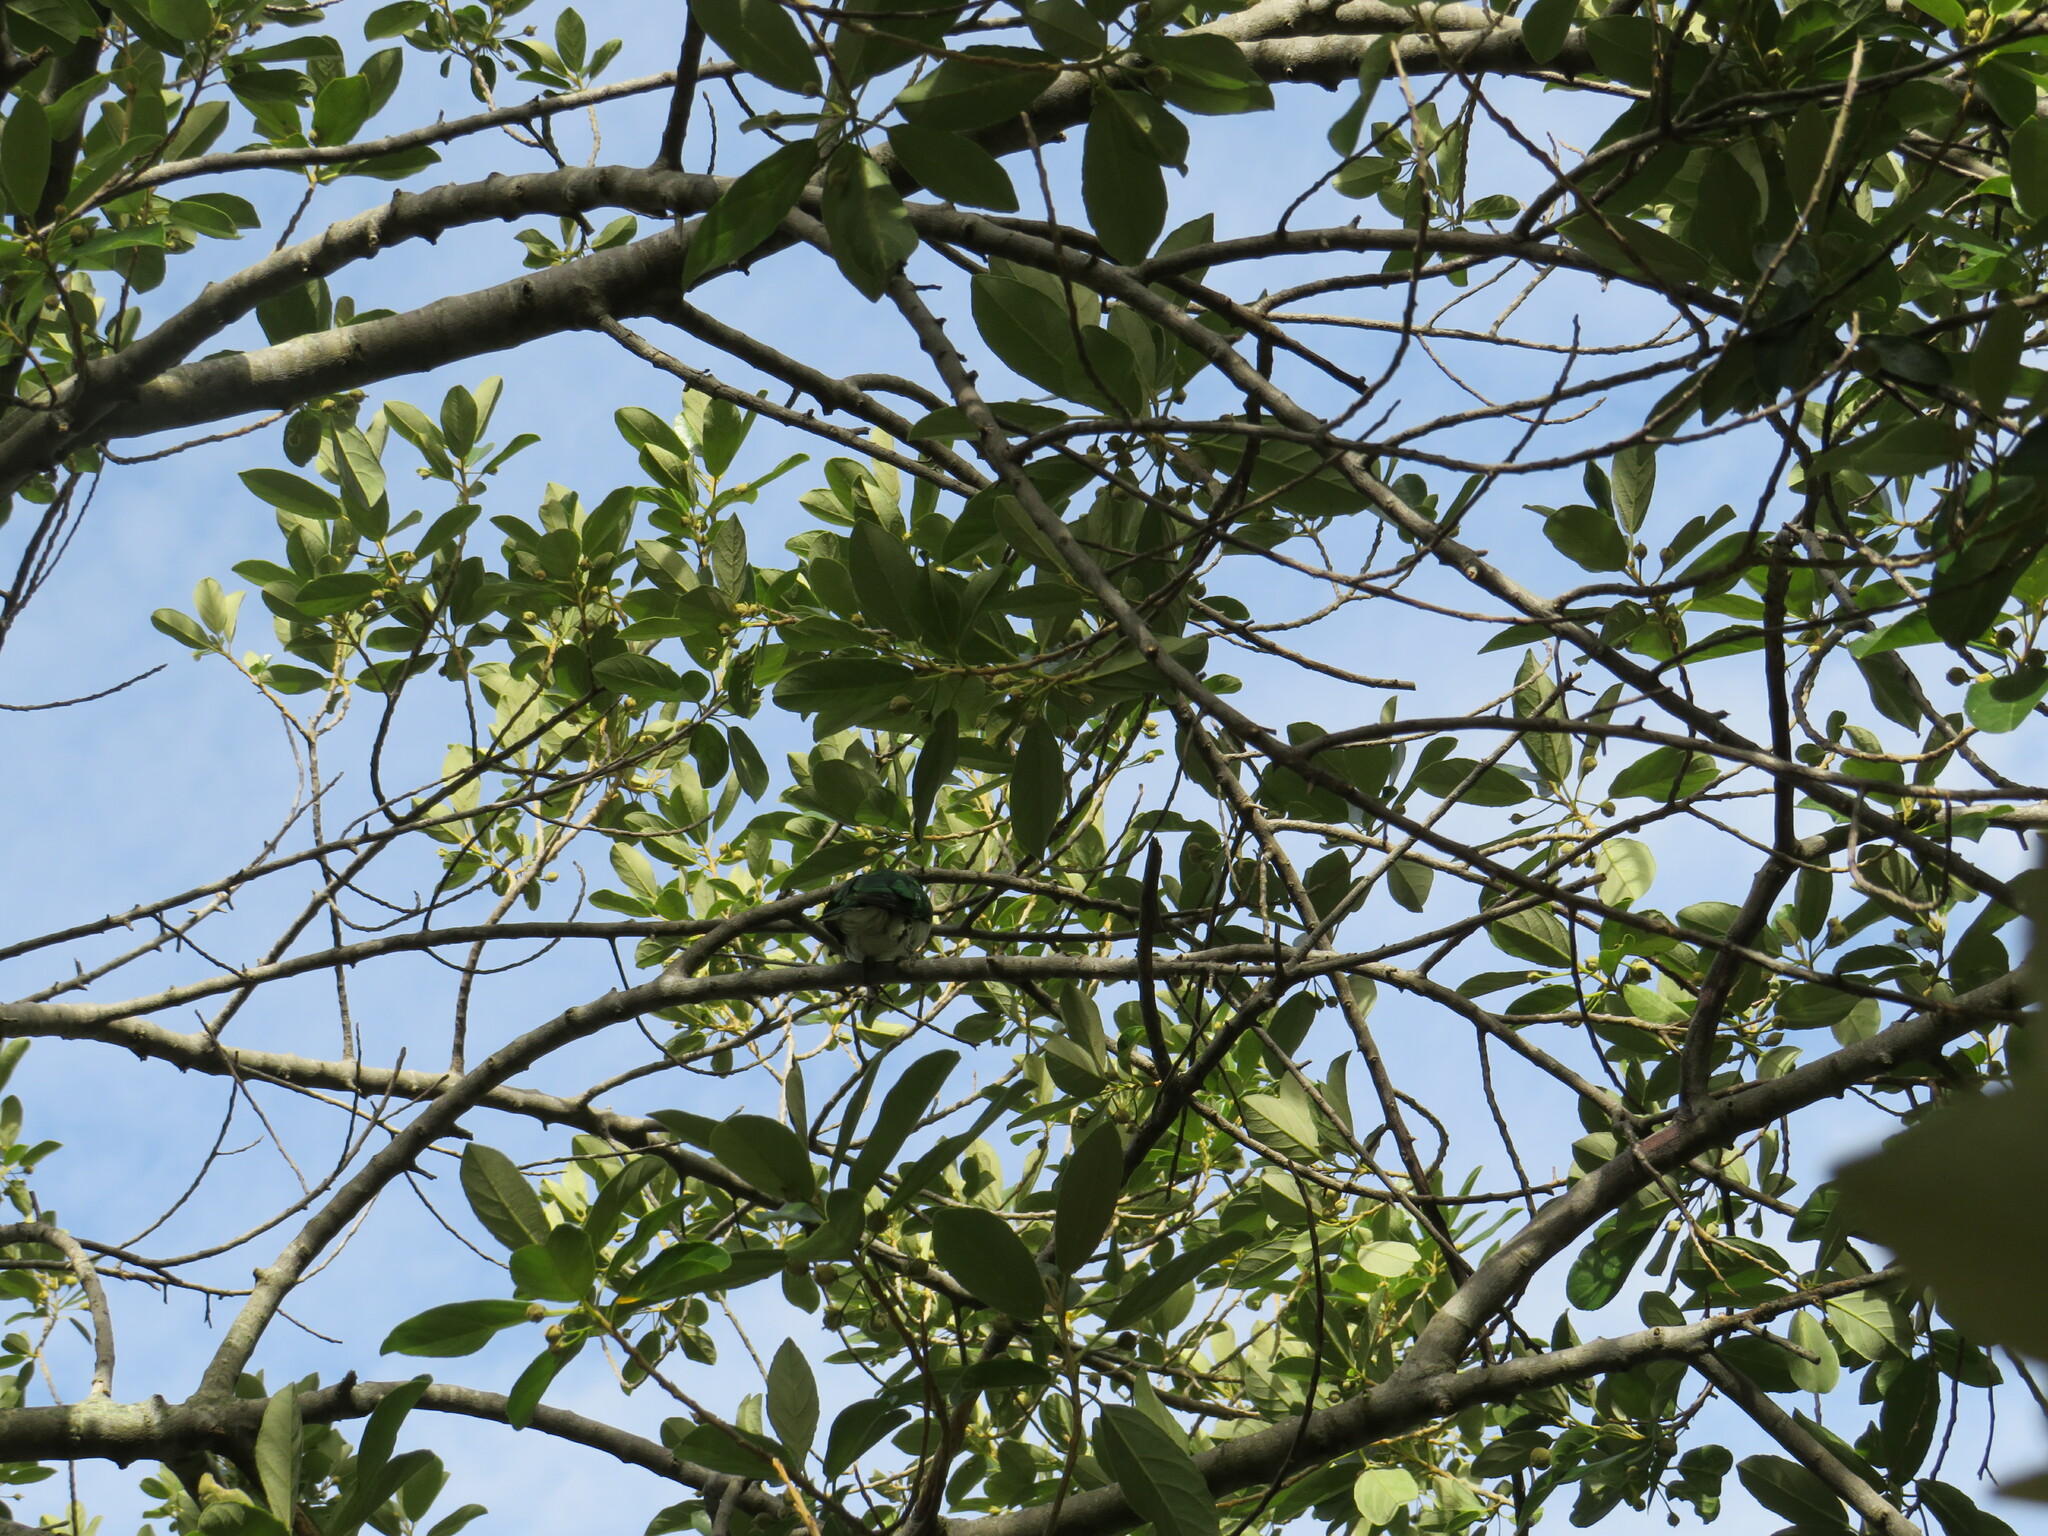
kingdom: Animalia
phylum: Chordata
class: Aves
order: Cuculiformes
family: Cuculidae
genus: Chrysococcyx
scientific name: Chrysococcyx klaas
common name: Klaas's cuckoo
